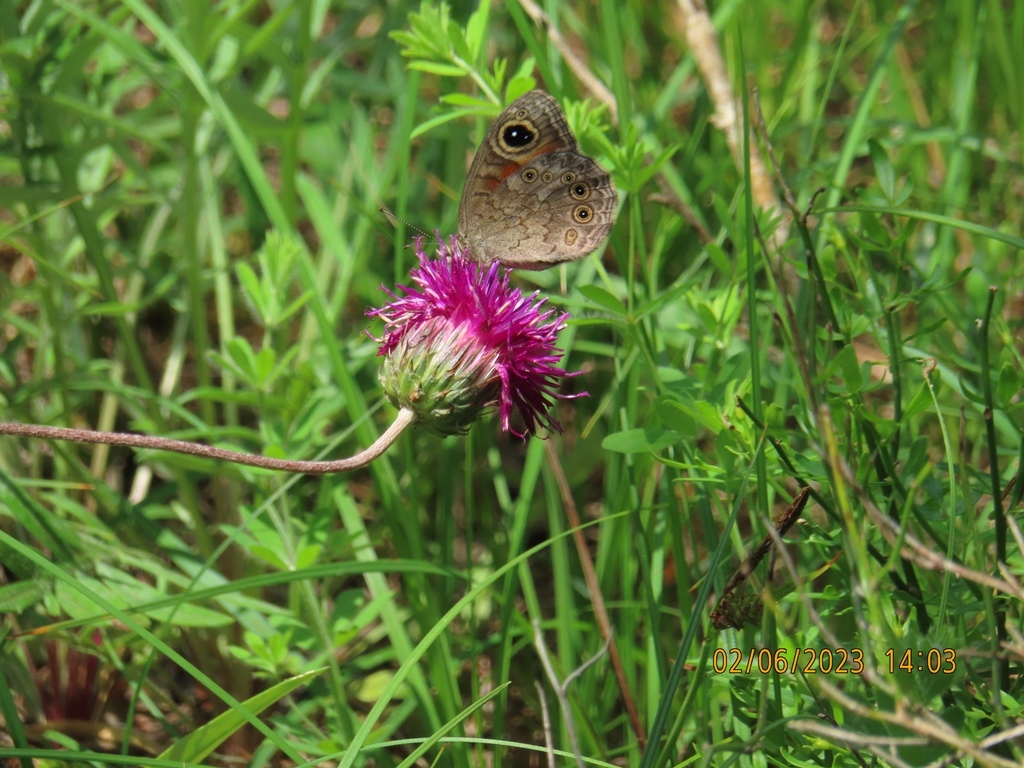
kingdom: Animalia
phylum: Arthropoda
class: Insecta
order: Lepidoptera
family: Nymphalidae
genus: Pararge
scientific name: Pararge Lasiommata maera
